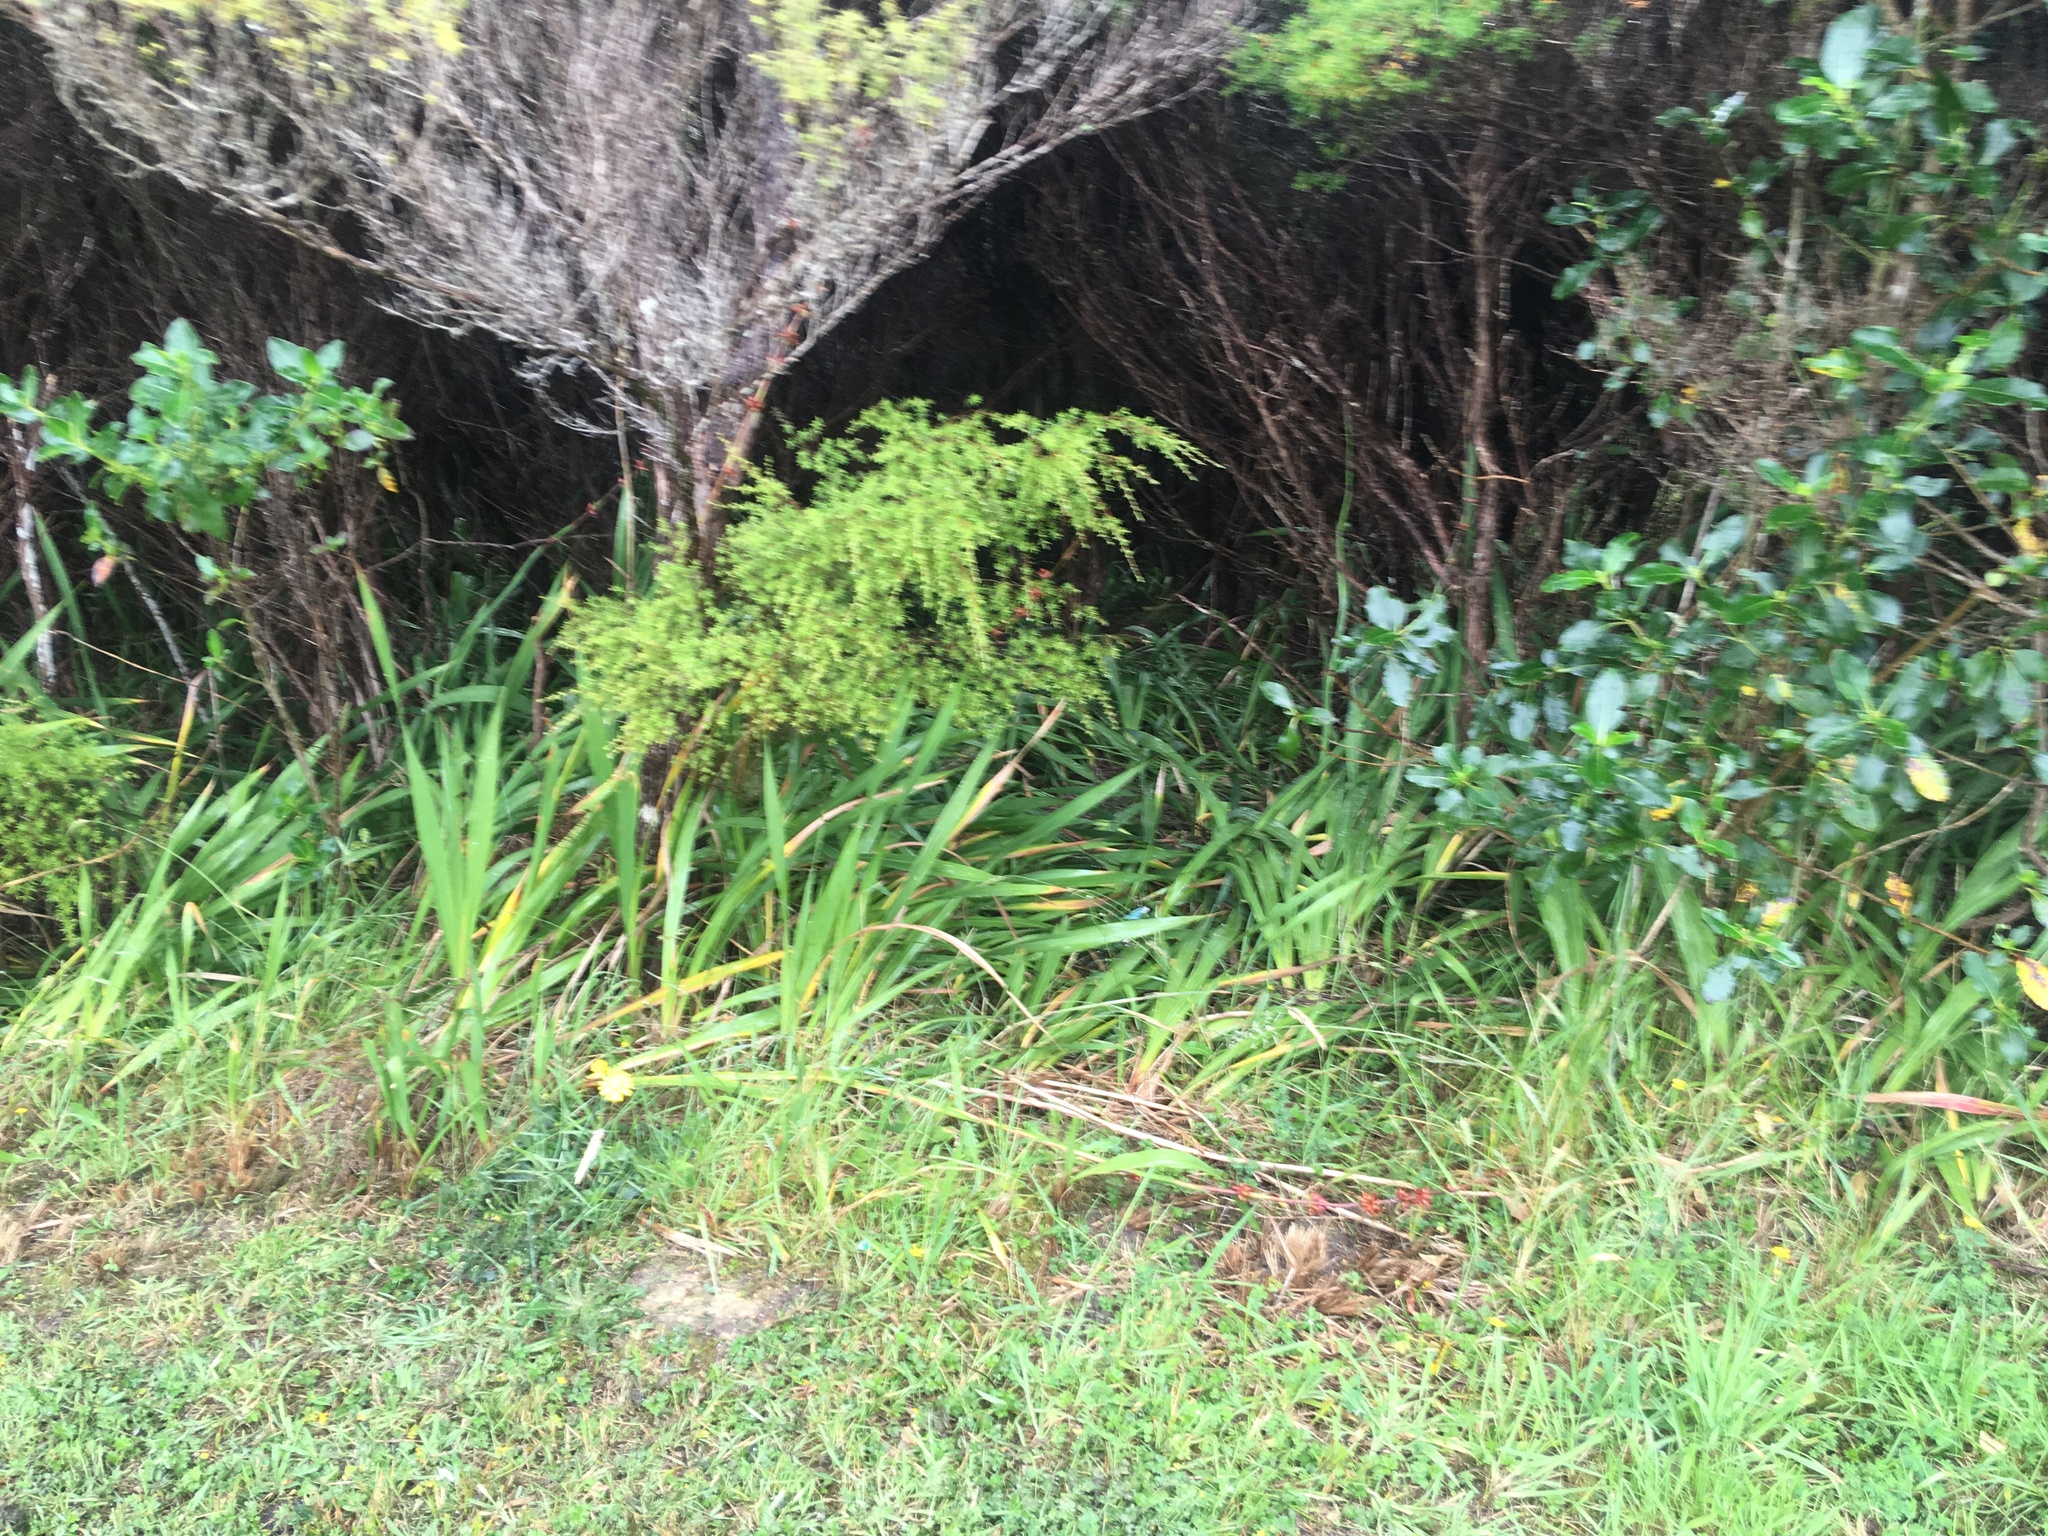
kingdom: Plantae
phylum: Tracheophyta
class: Magnoliopsida
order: Myrtales
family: Myrtaceae
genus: Leptospermum
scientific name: Leptospermum scoparium
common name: Broom tea-tree
